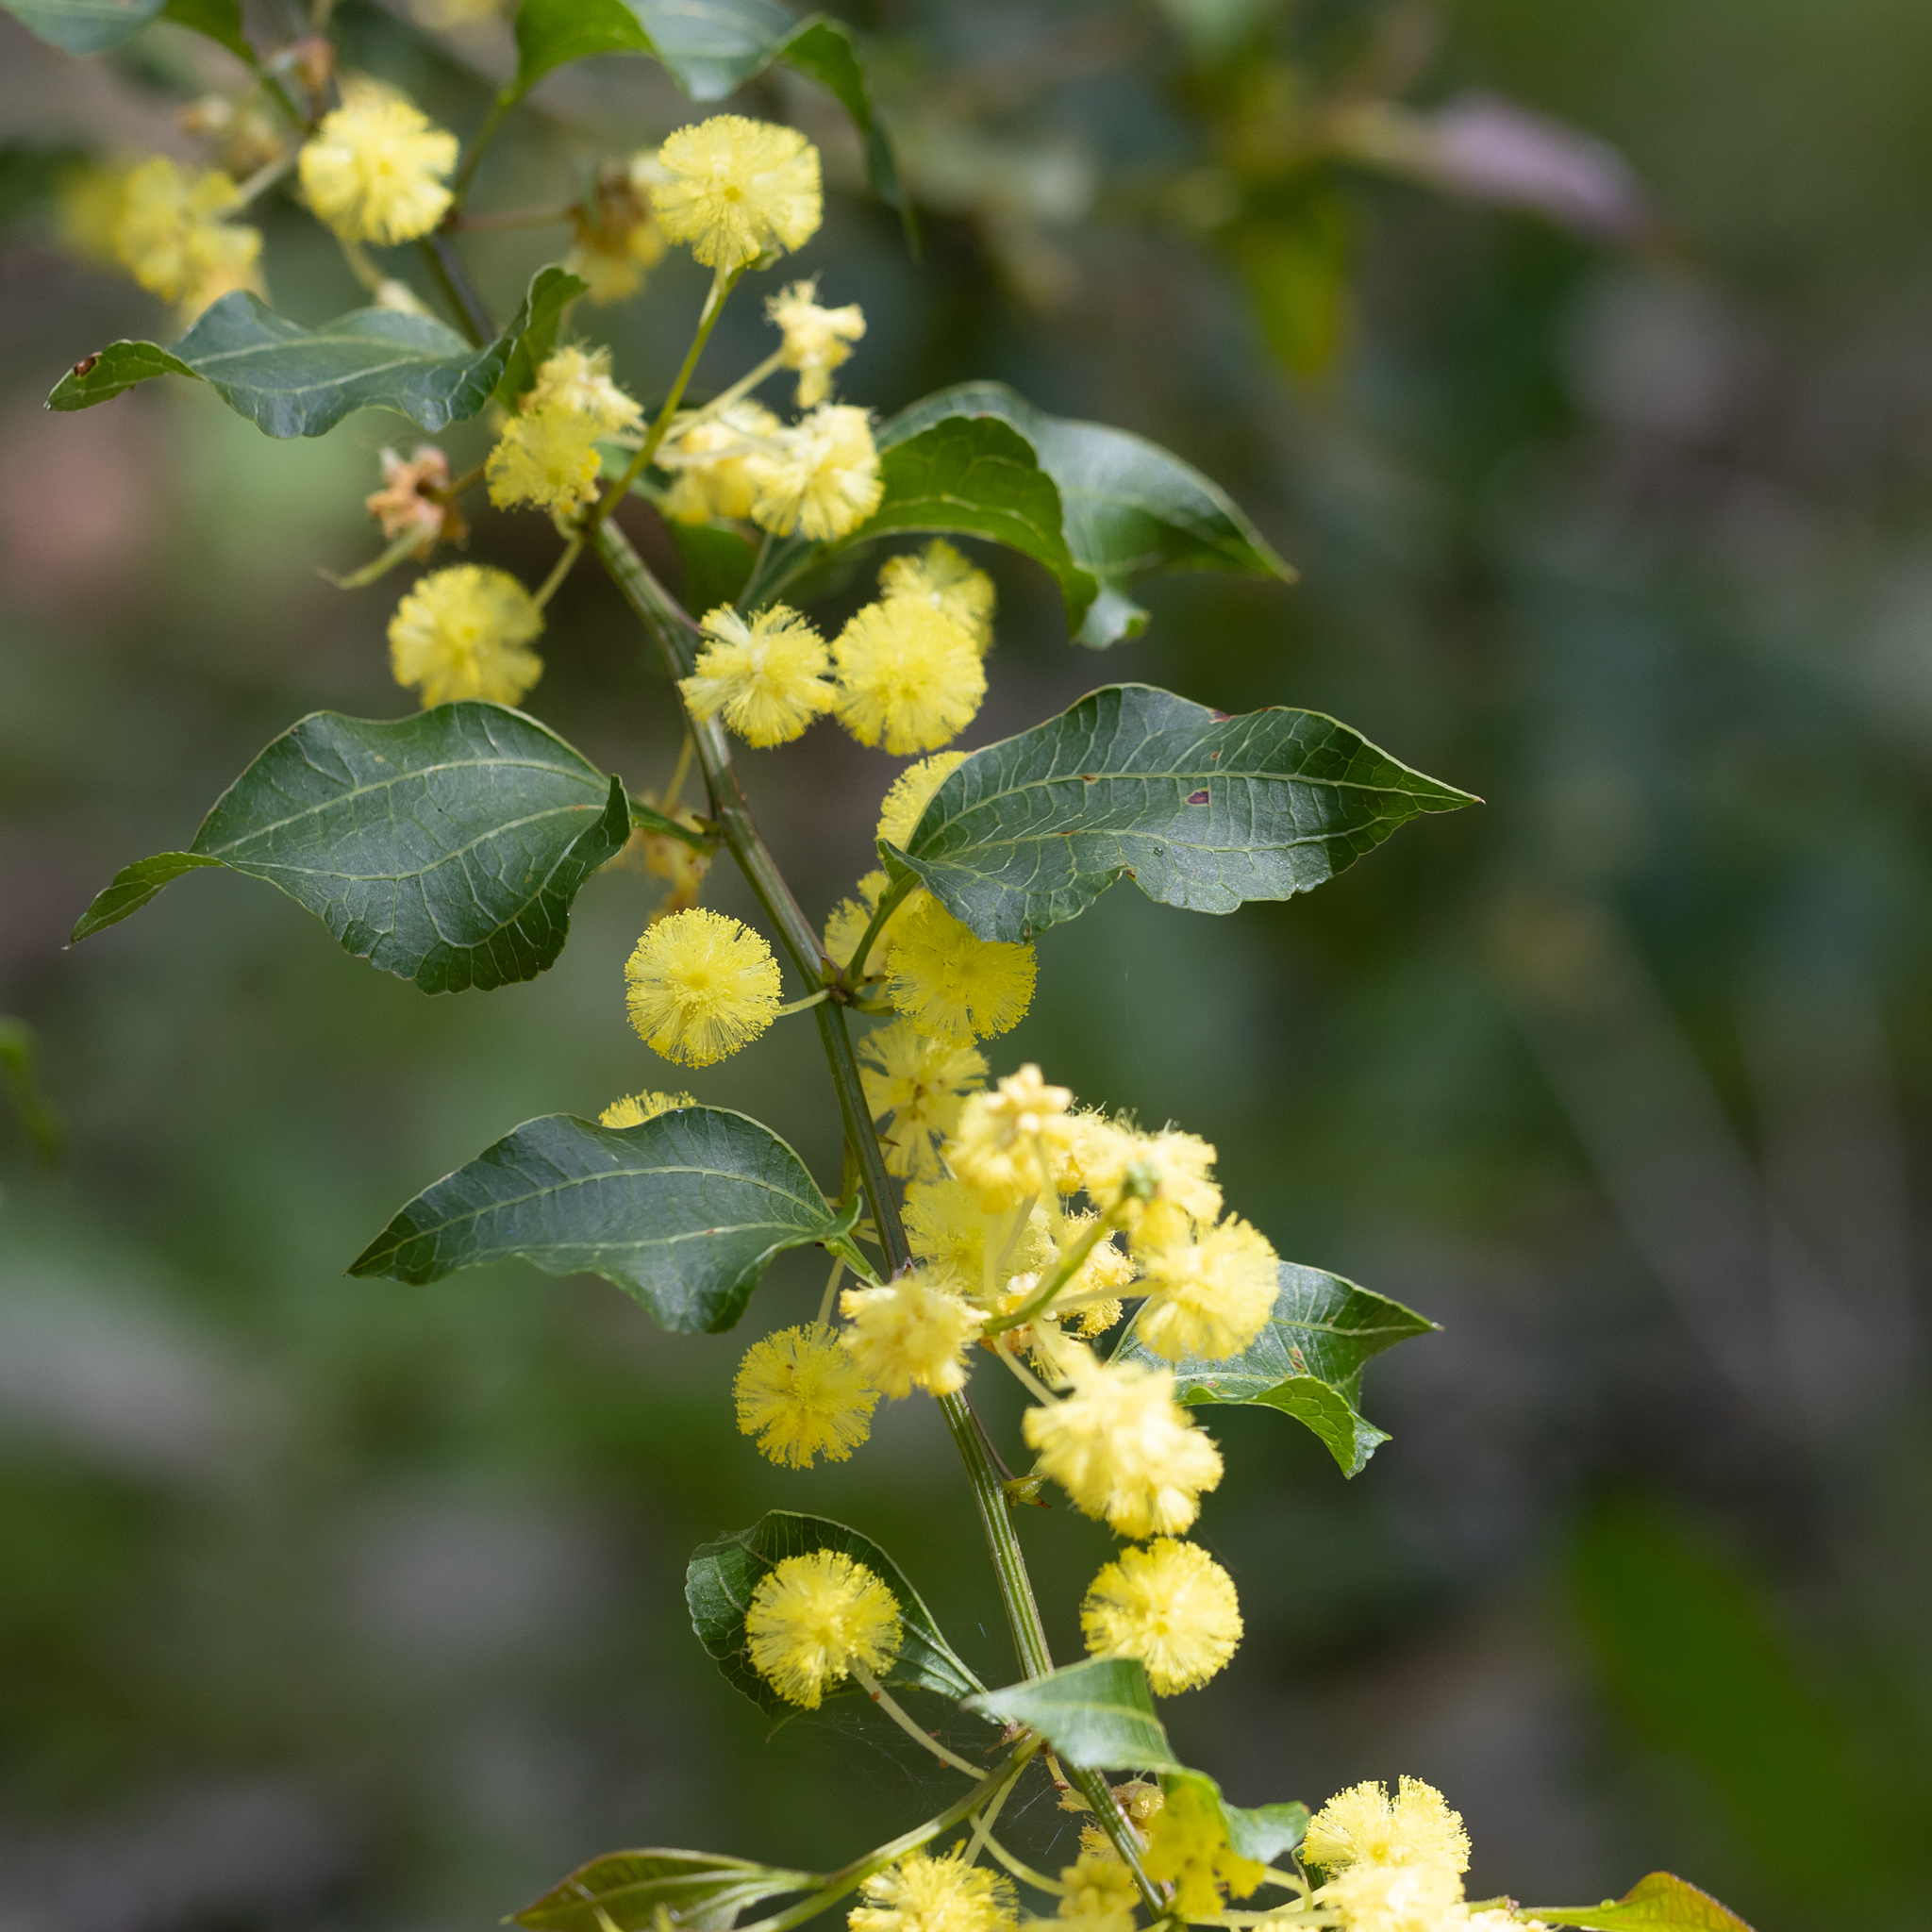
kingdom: Plantae
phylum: Tracheophyta
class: Magnoliopsida
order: Fabales
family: Fabaceae
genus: Acacia
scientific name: Acacia urophylla
